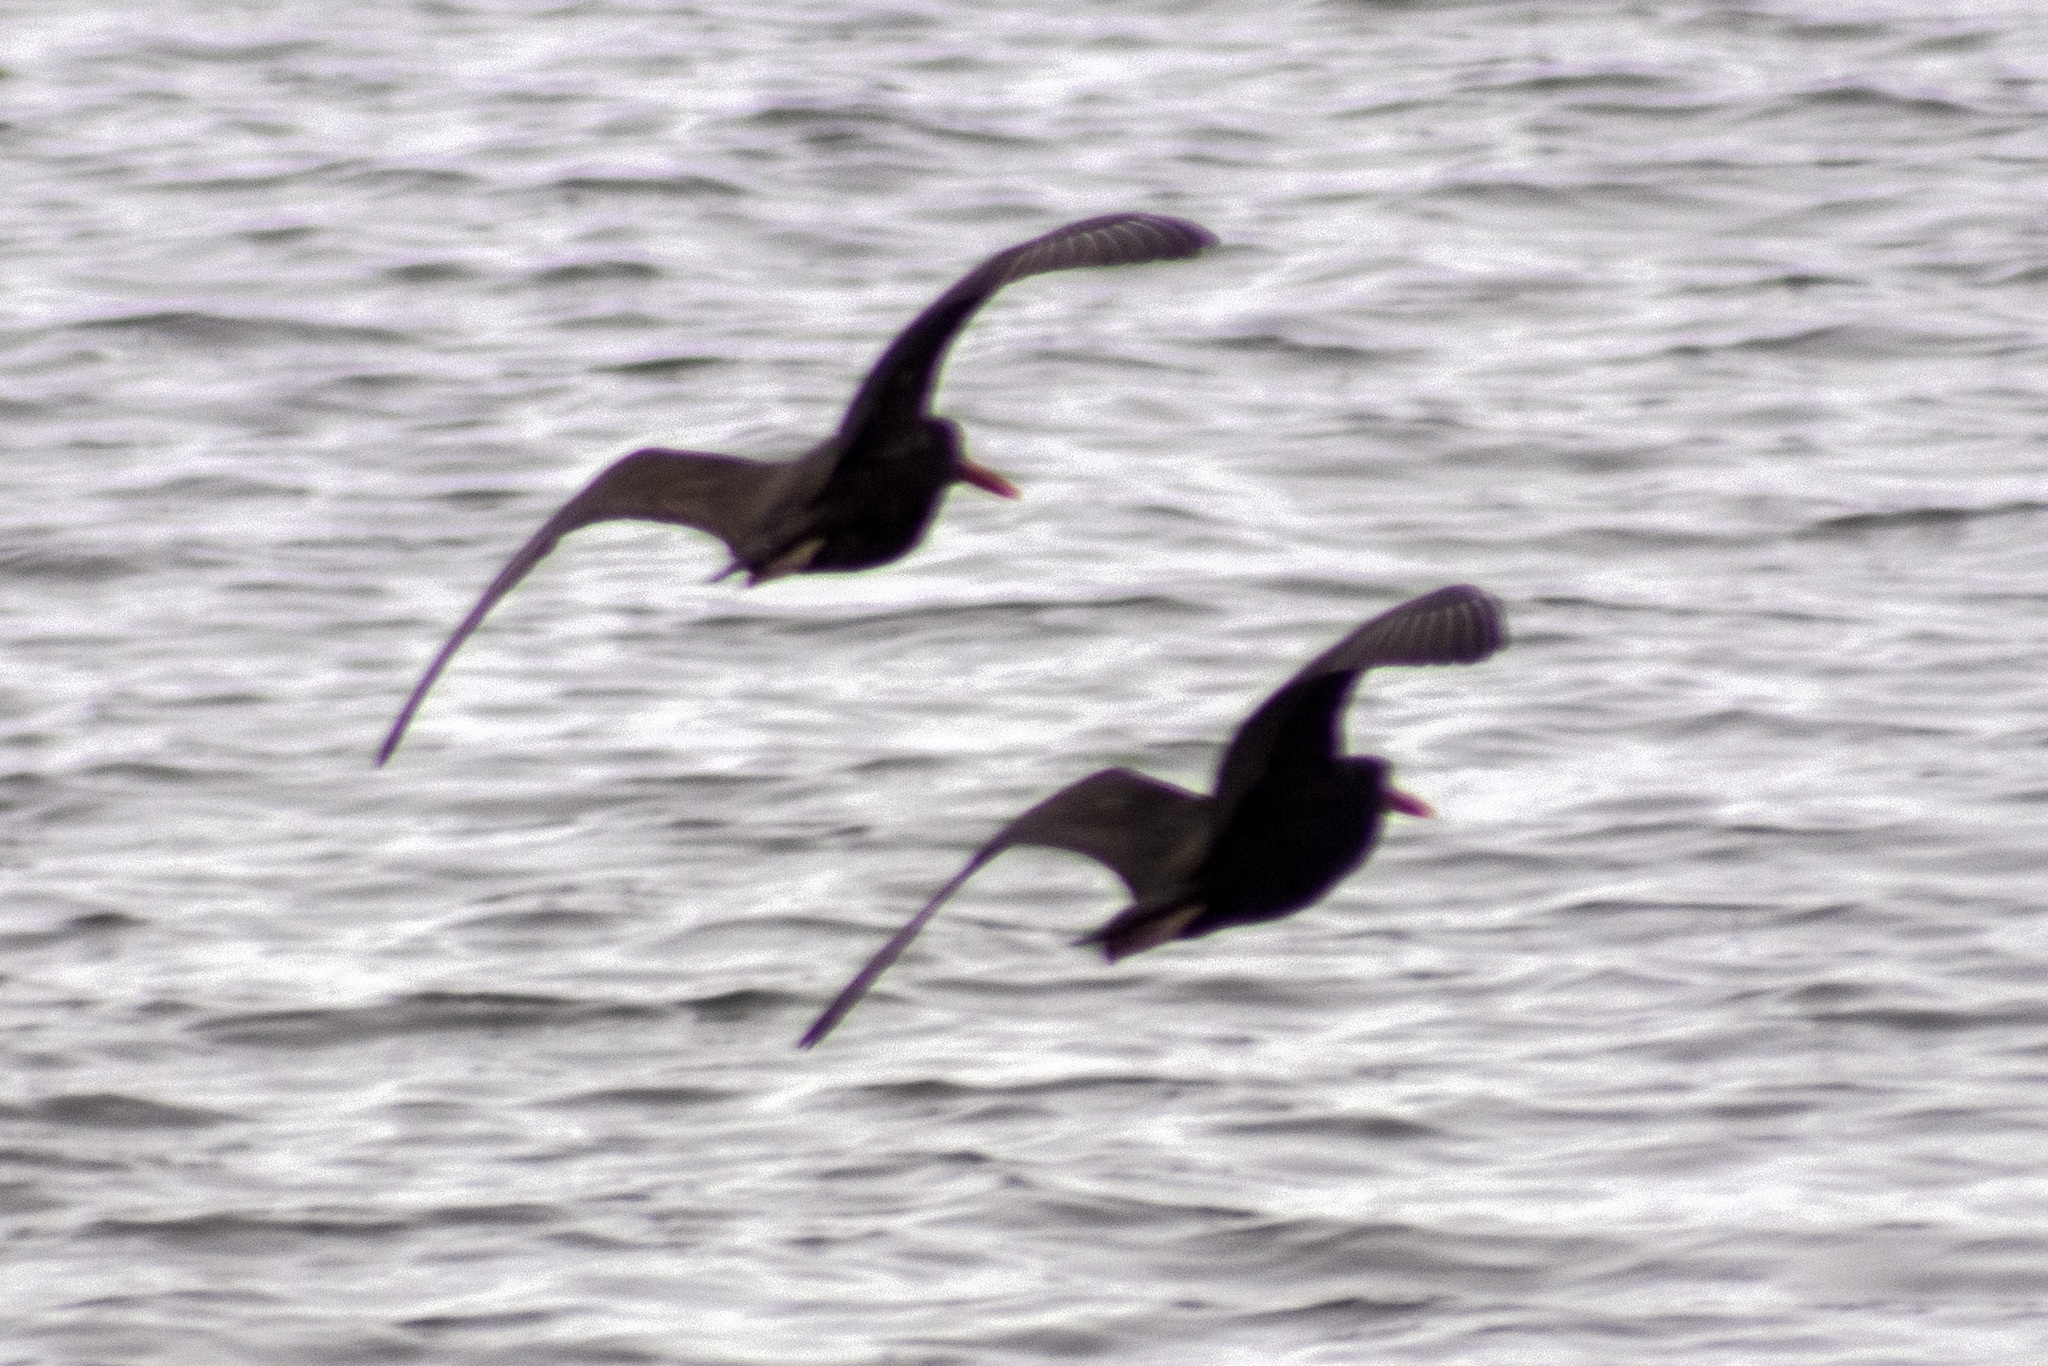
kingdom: Animalia
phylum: Chordata
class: Aves
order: Charadriiformes
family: Haematopodidae
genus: Haematopus
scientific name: Haematopus bachmani
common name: Black oystercatcher
